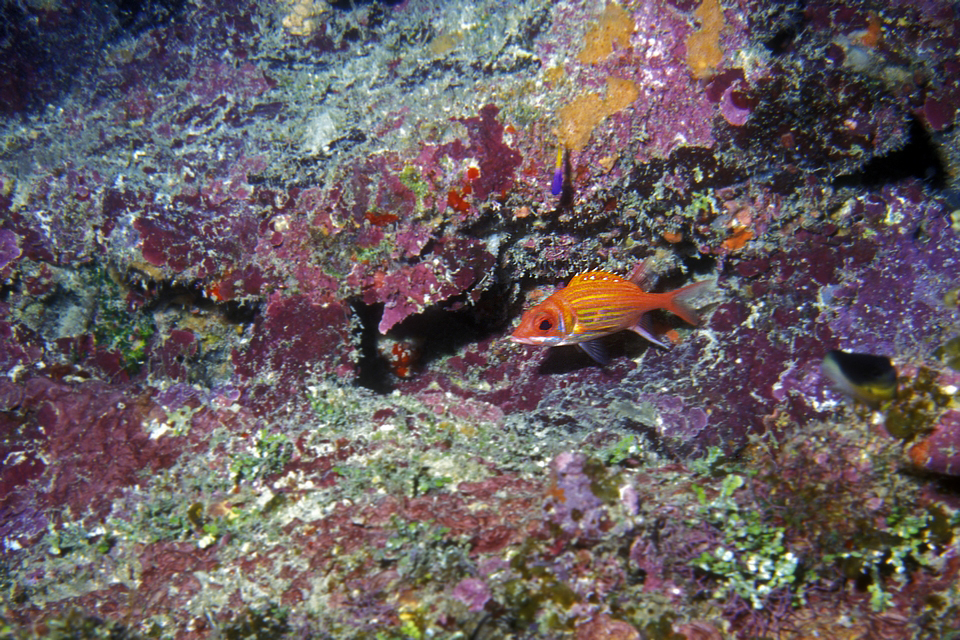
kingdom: Animalia
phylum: Chordata
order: Beryciformes
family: Holocentridae
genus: Neoniphon
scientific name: Neoniphon marianus
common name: Longjaw squirrelfish
